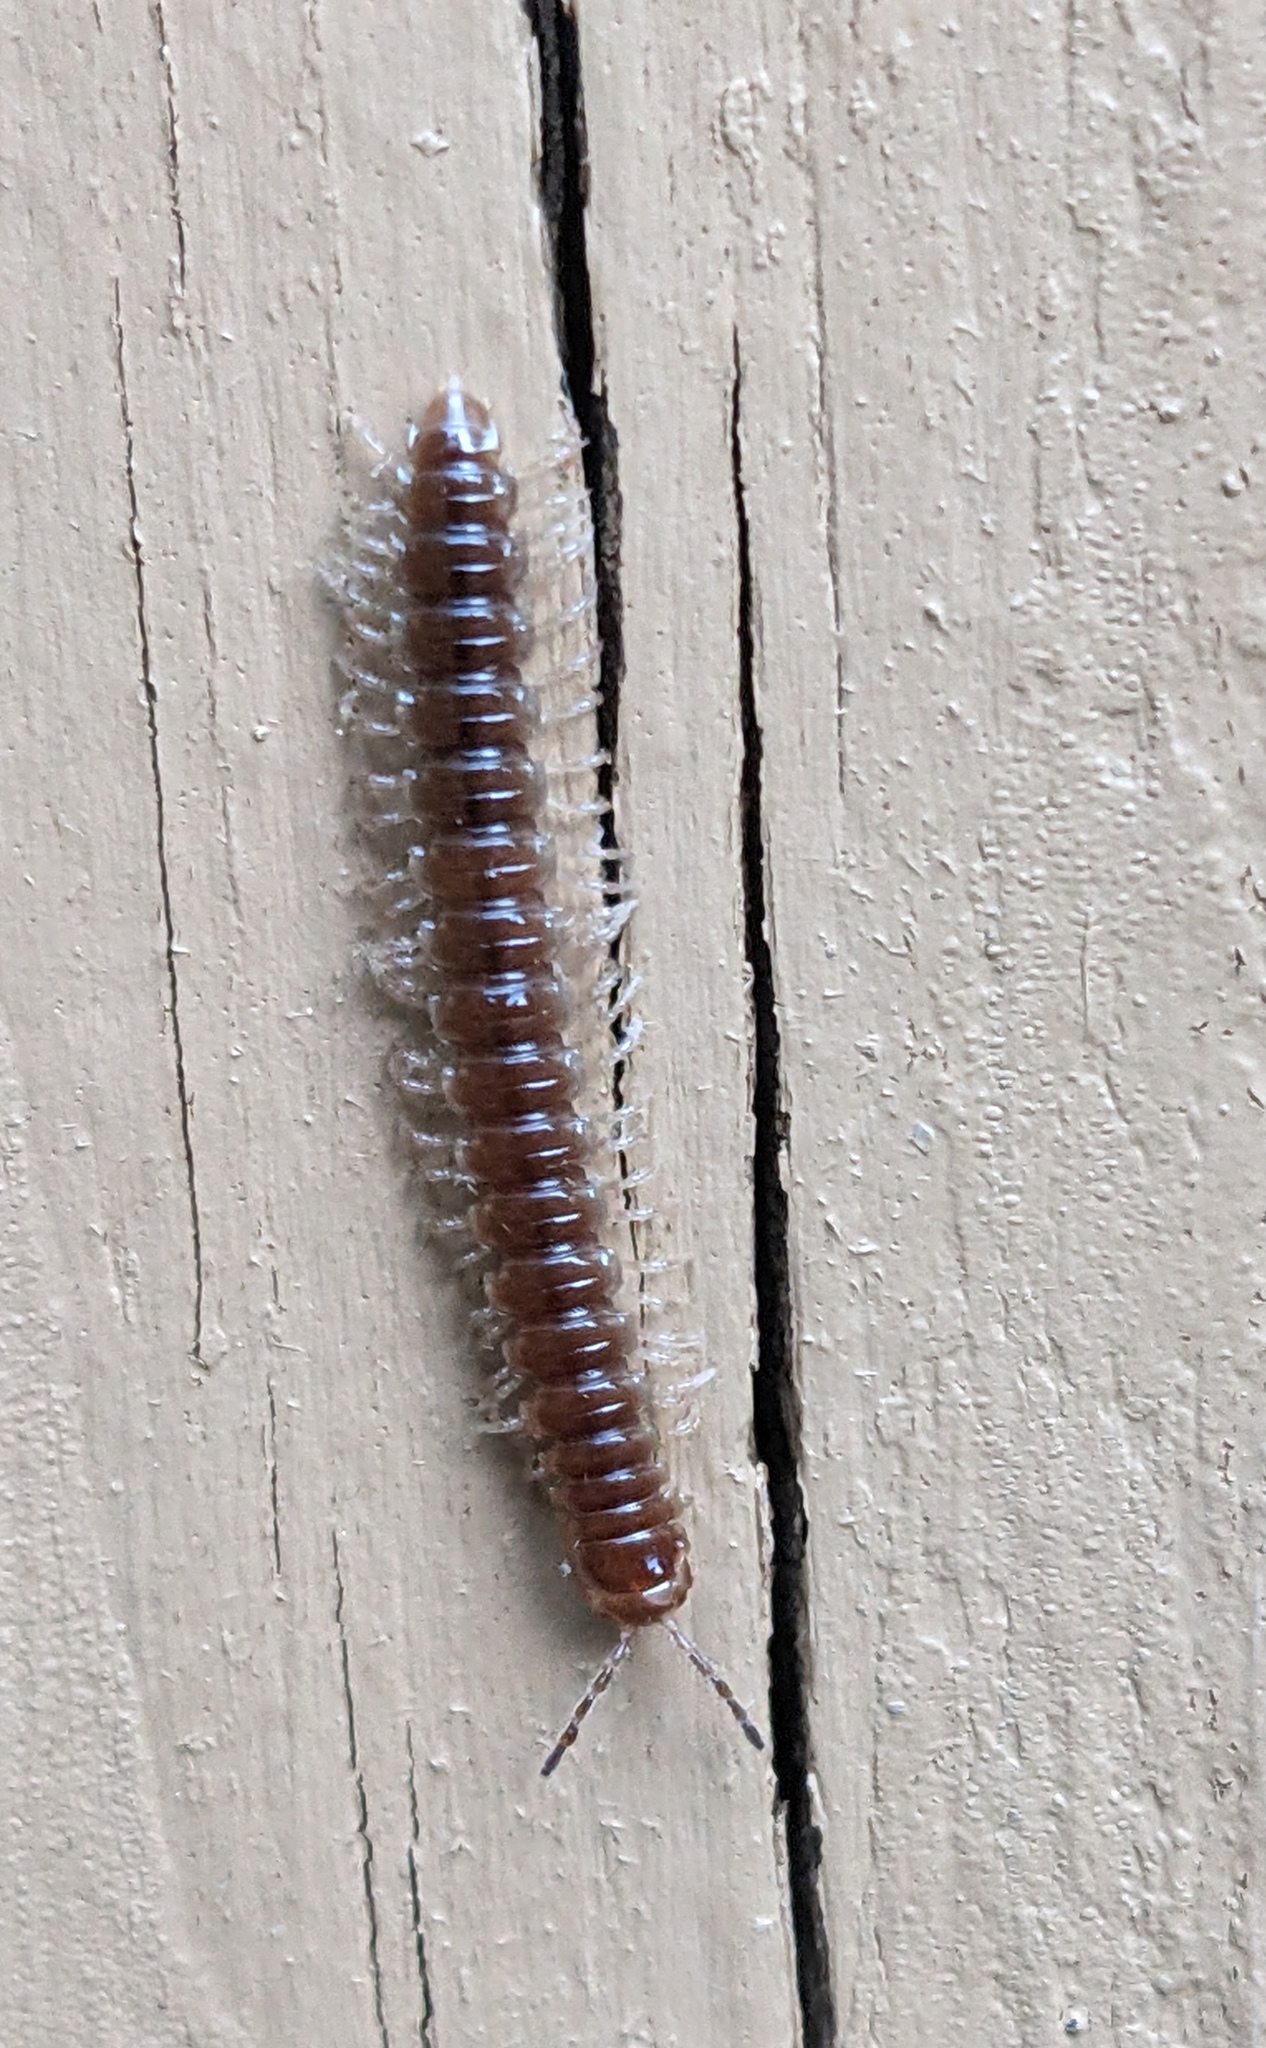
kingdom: Animalia
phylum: Arthropoda
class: Diplopoda
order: Polydesmida
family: Paradoxosomatidae
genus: Oxidus
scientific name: Oxidus gracilis
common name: Greenhouse millipede
